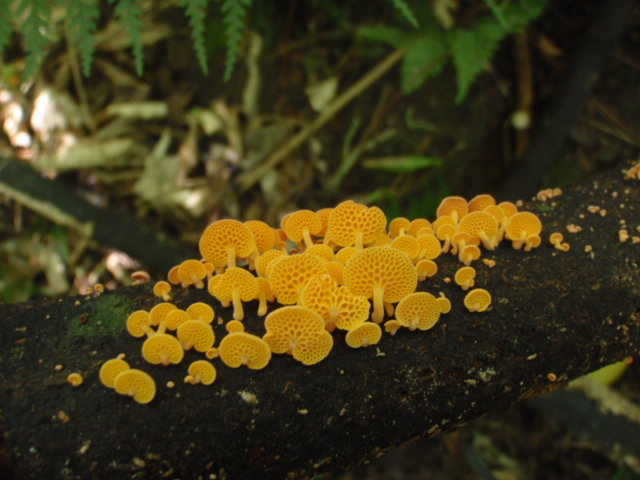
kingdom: Fungi
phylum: Basidiomycota
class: Agaricomycetes
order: Agaricales
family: Mycenaceae
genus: Favolaschia
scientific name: Favolaschia claudopus
